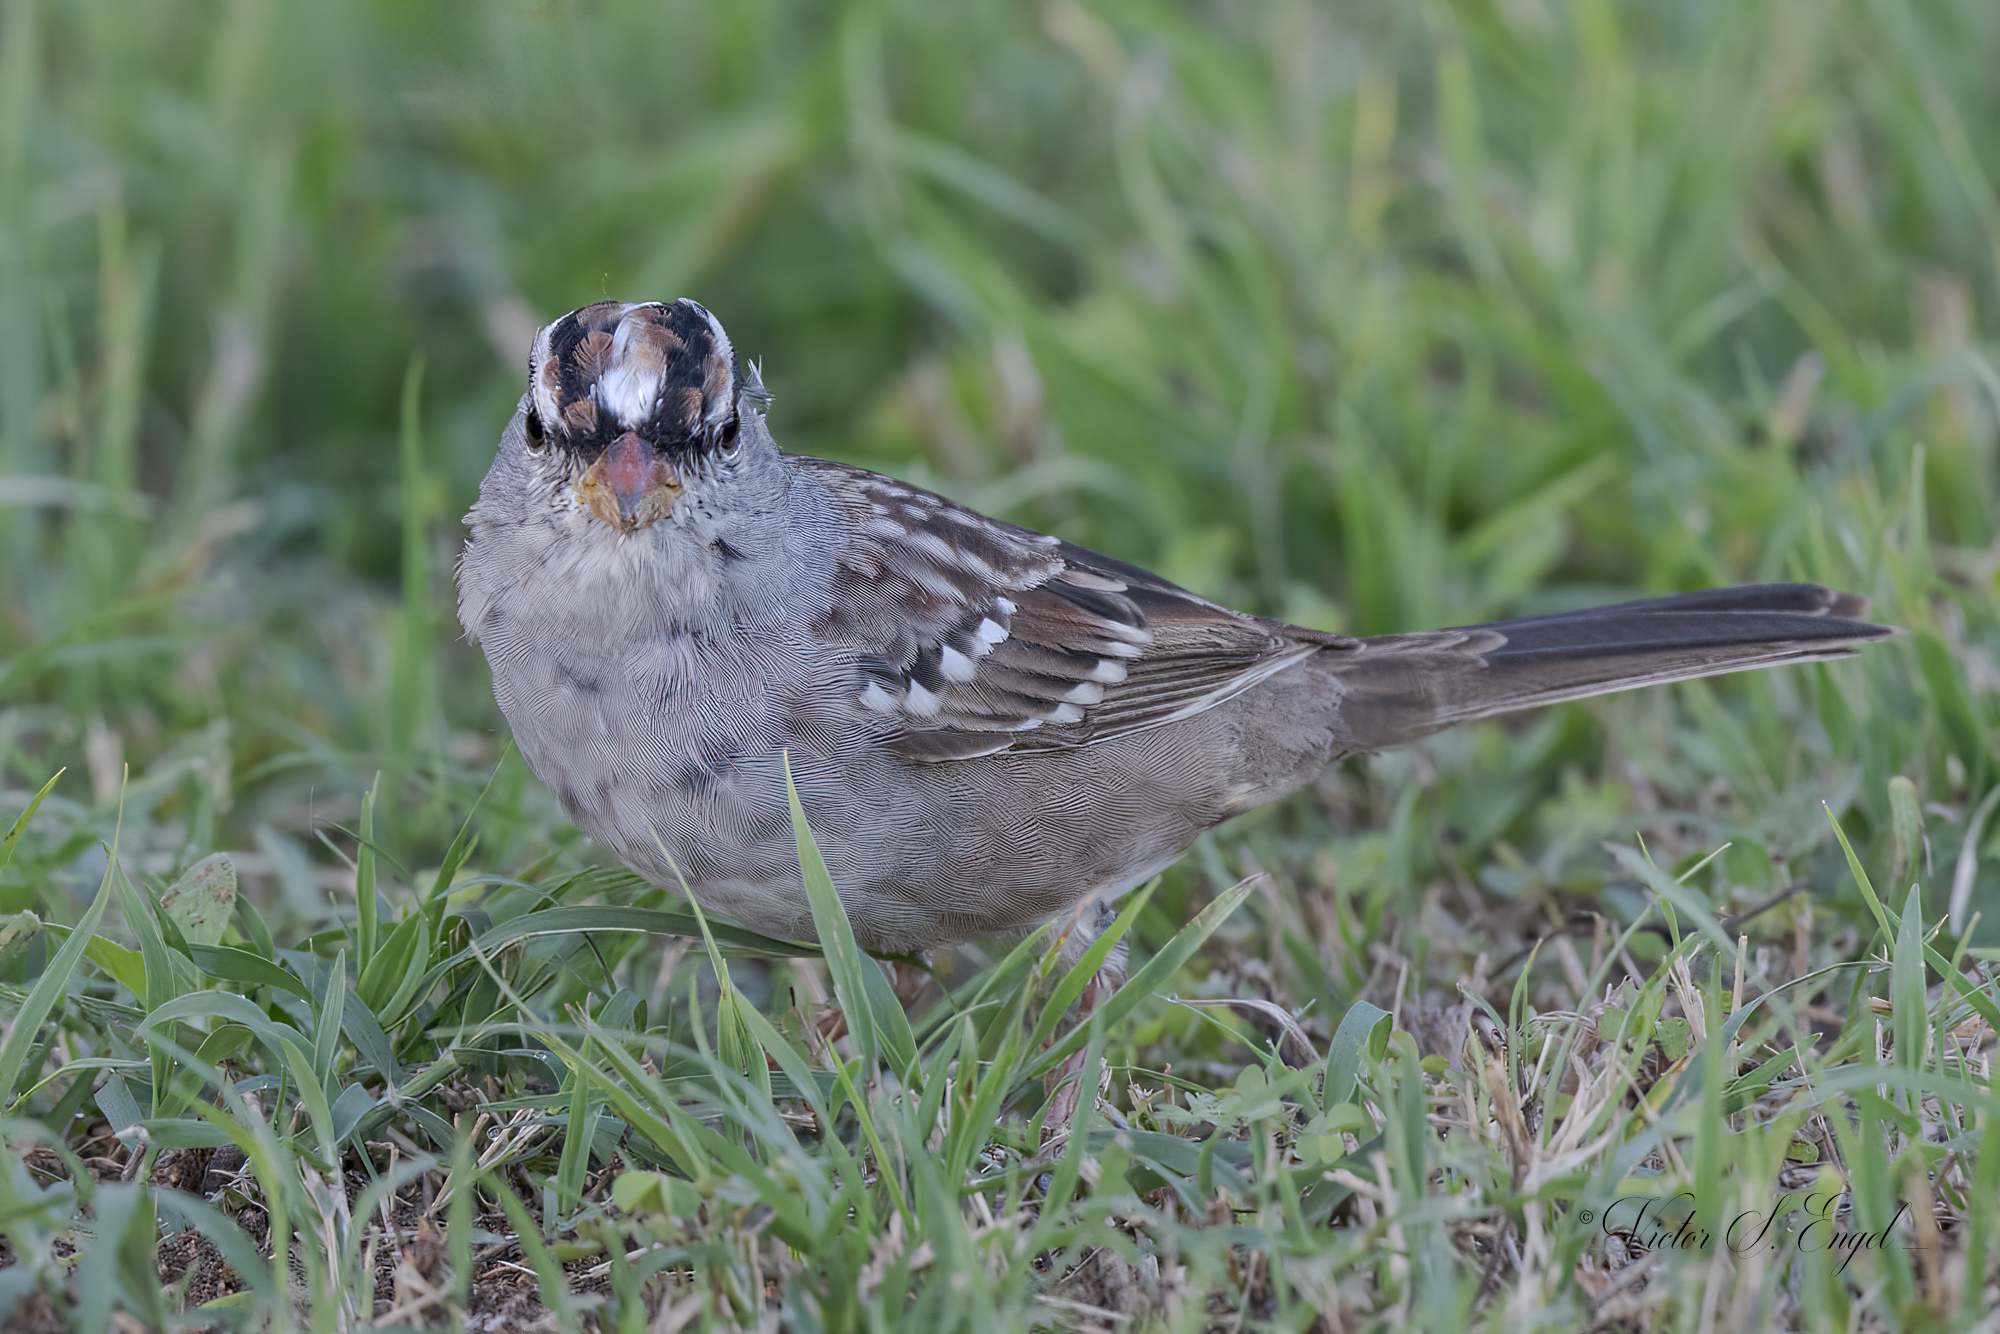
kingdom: Animalia
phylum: Chordata
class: Aves
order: Passeriformes
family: Passerellidae
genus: Zonotrichia
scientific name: Zonotrichia leucophrys
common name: White-crowned sparrow
